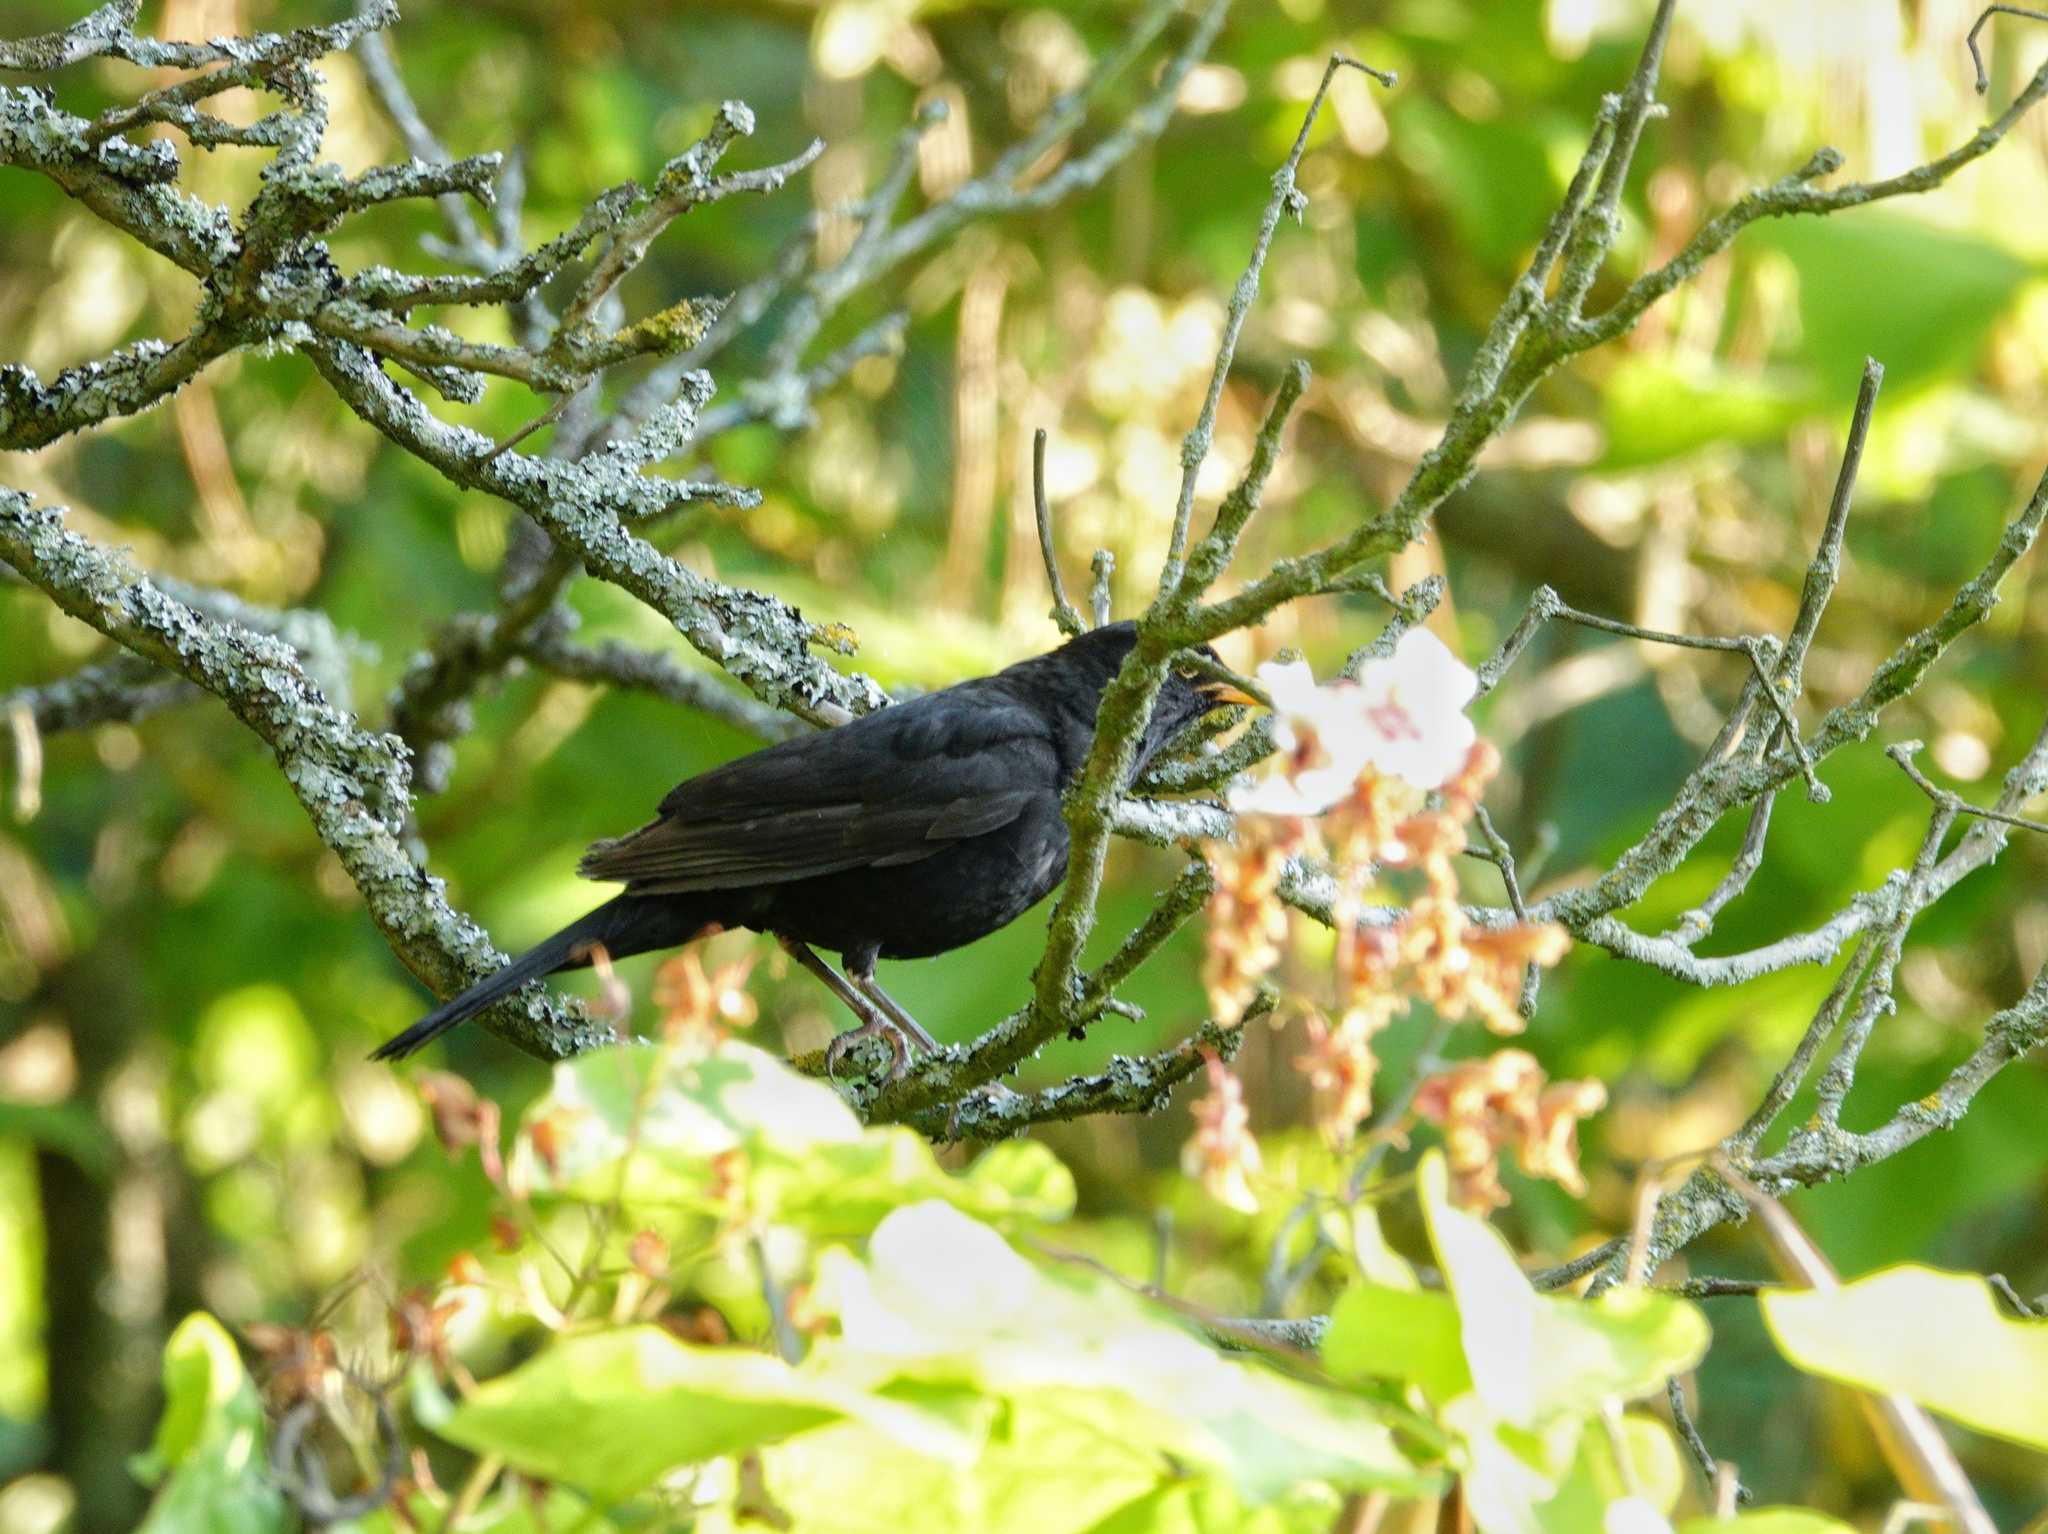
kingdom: Animalia
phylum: Chordata
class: Aves
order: Passeriformes
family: Turdidae
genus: Turdus
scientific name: Turdus merula
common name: Common blackbird
